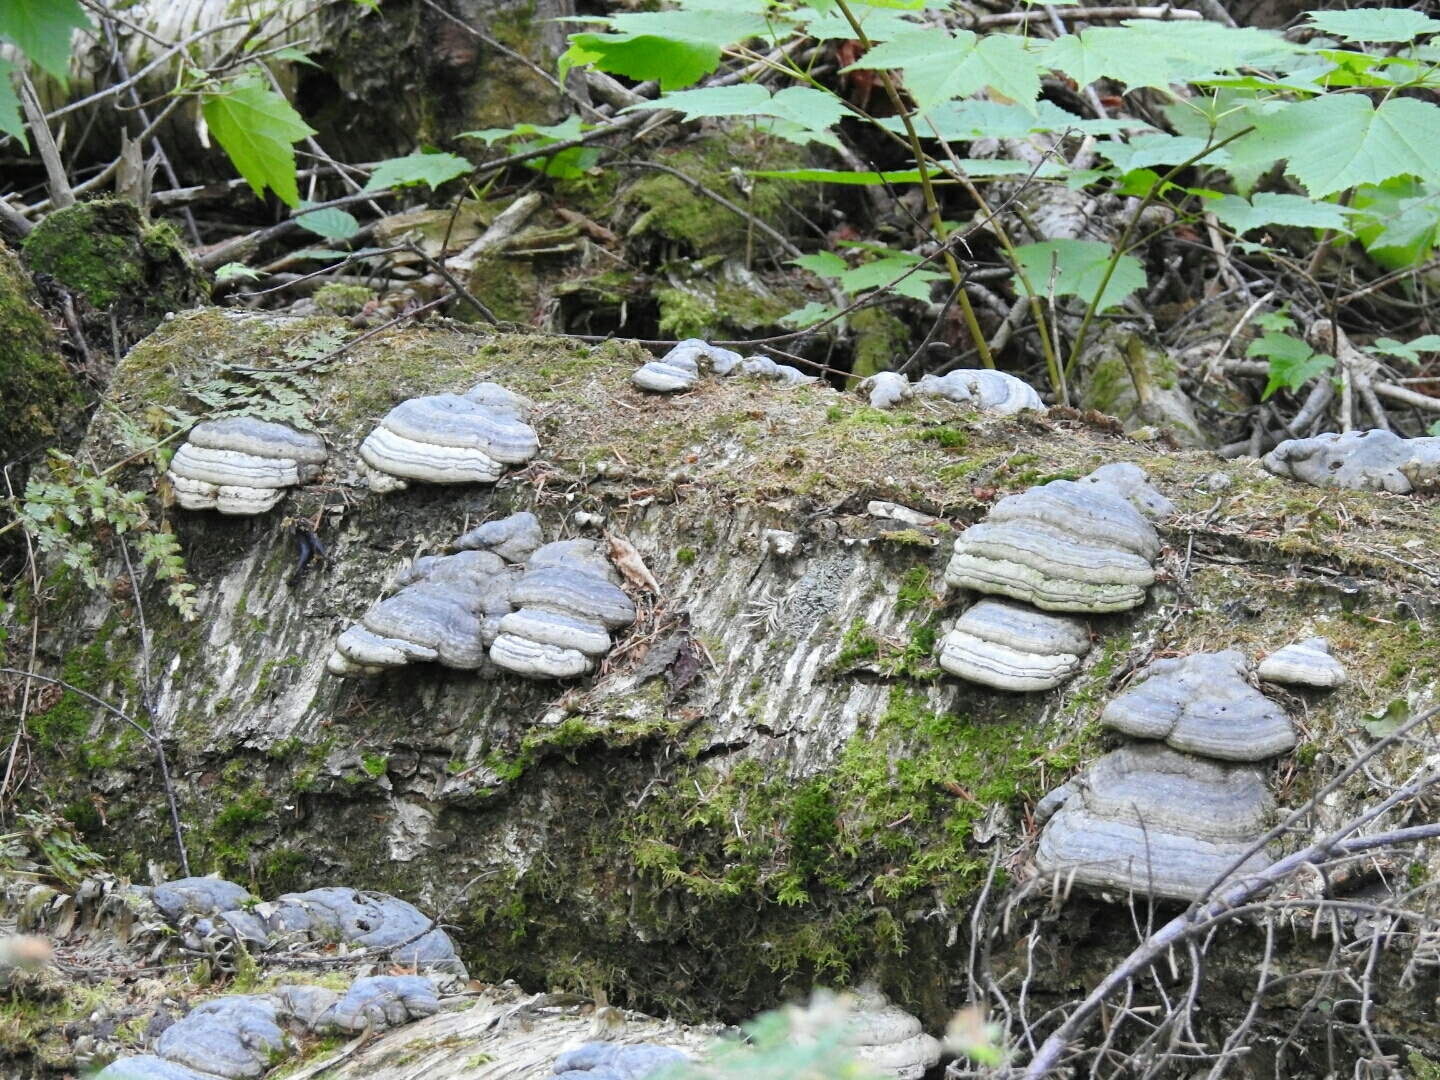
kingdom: Fungi
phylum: Basidiomycota
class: Agaricomycetes
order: Polyporales
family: Polyporaceae
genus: Fomes
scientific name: Fomes fomentarius
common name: Hoof fungus
